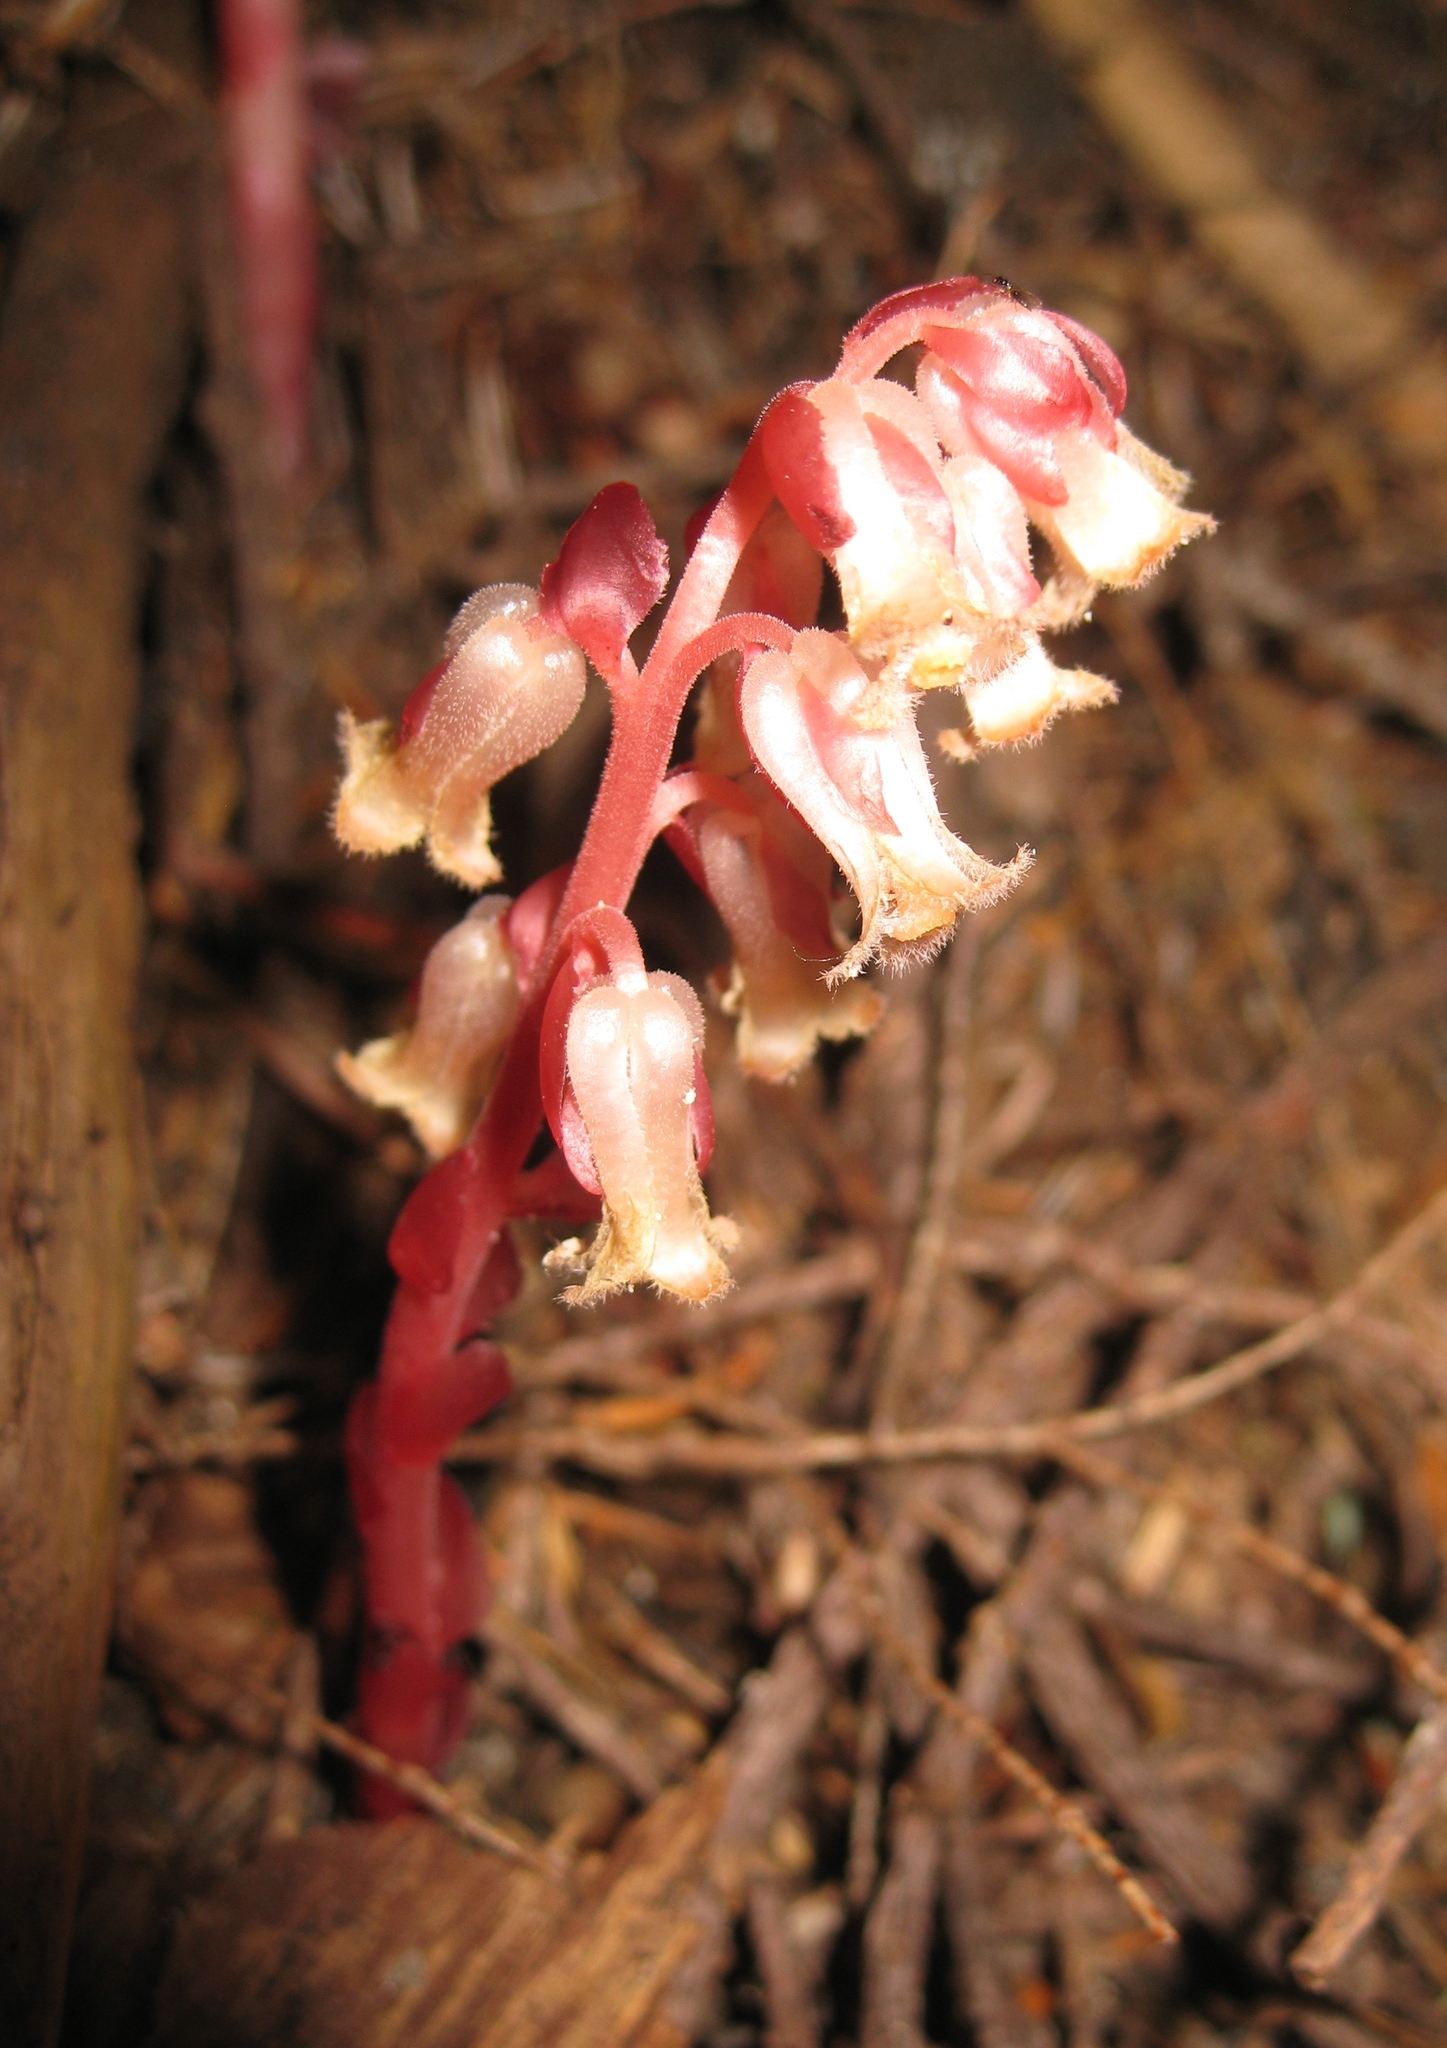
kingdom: Plantae
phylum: Tracheophyta
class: Magnoliopsida
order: Ericales
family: Ericaceae
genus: Hypopitys
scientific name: Hypopitys monotropa
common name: Yellow bird's-nest
